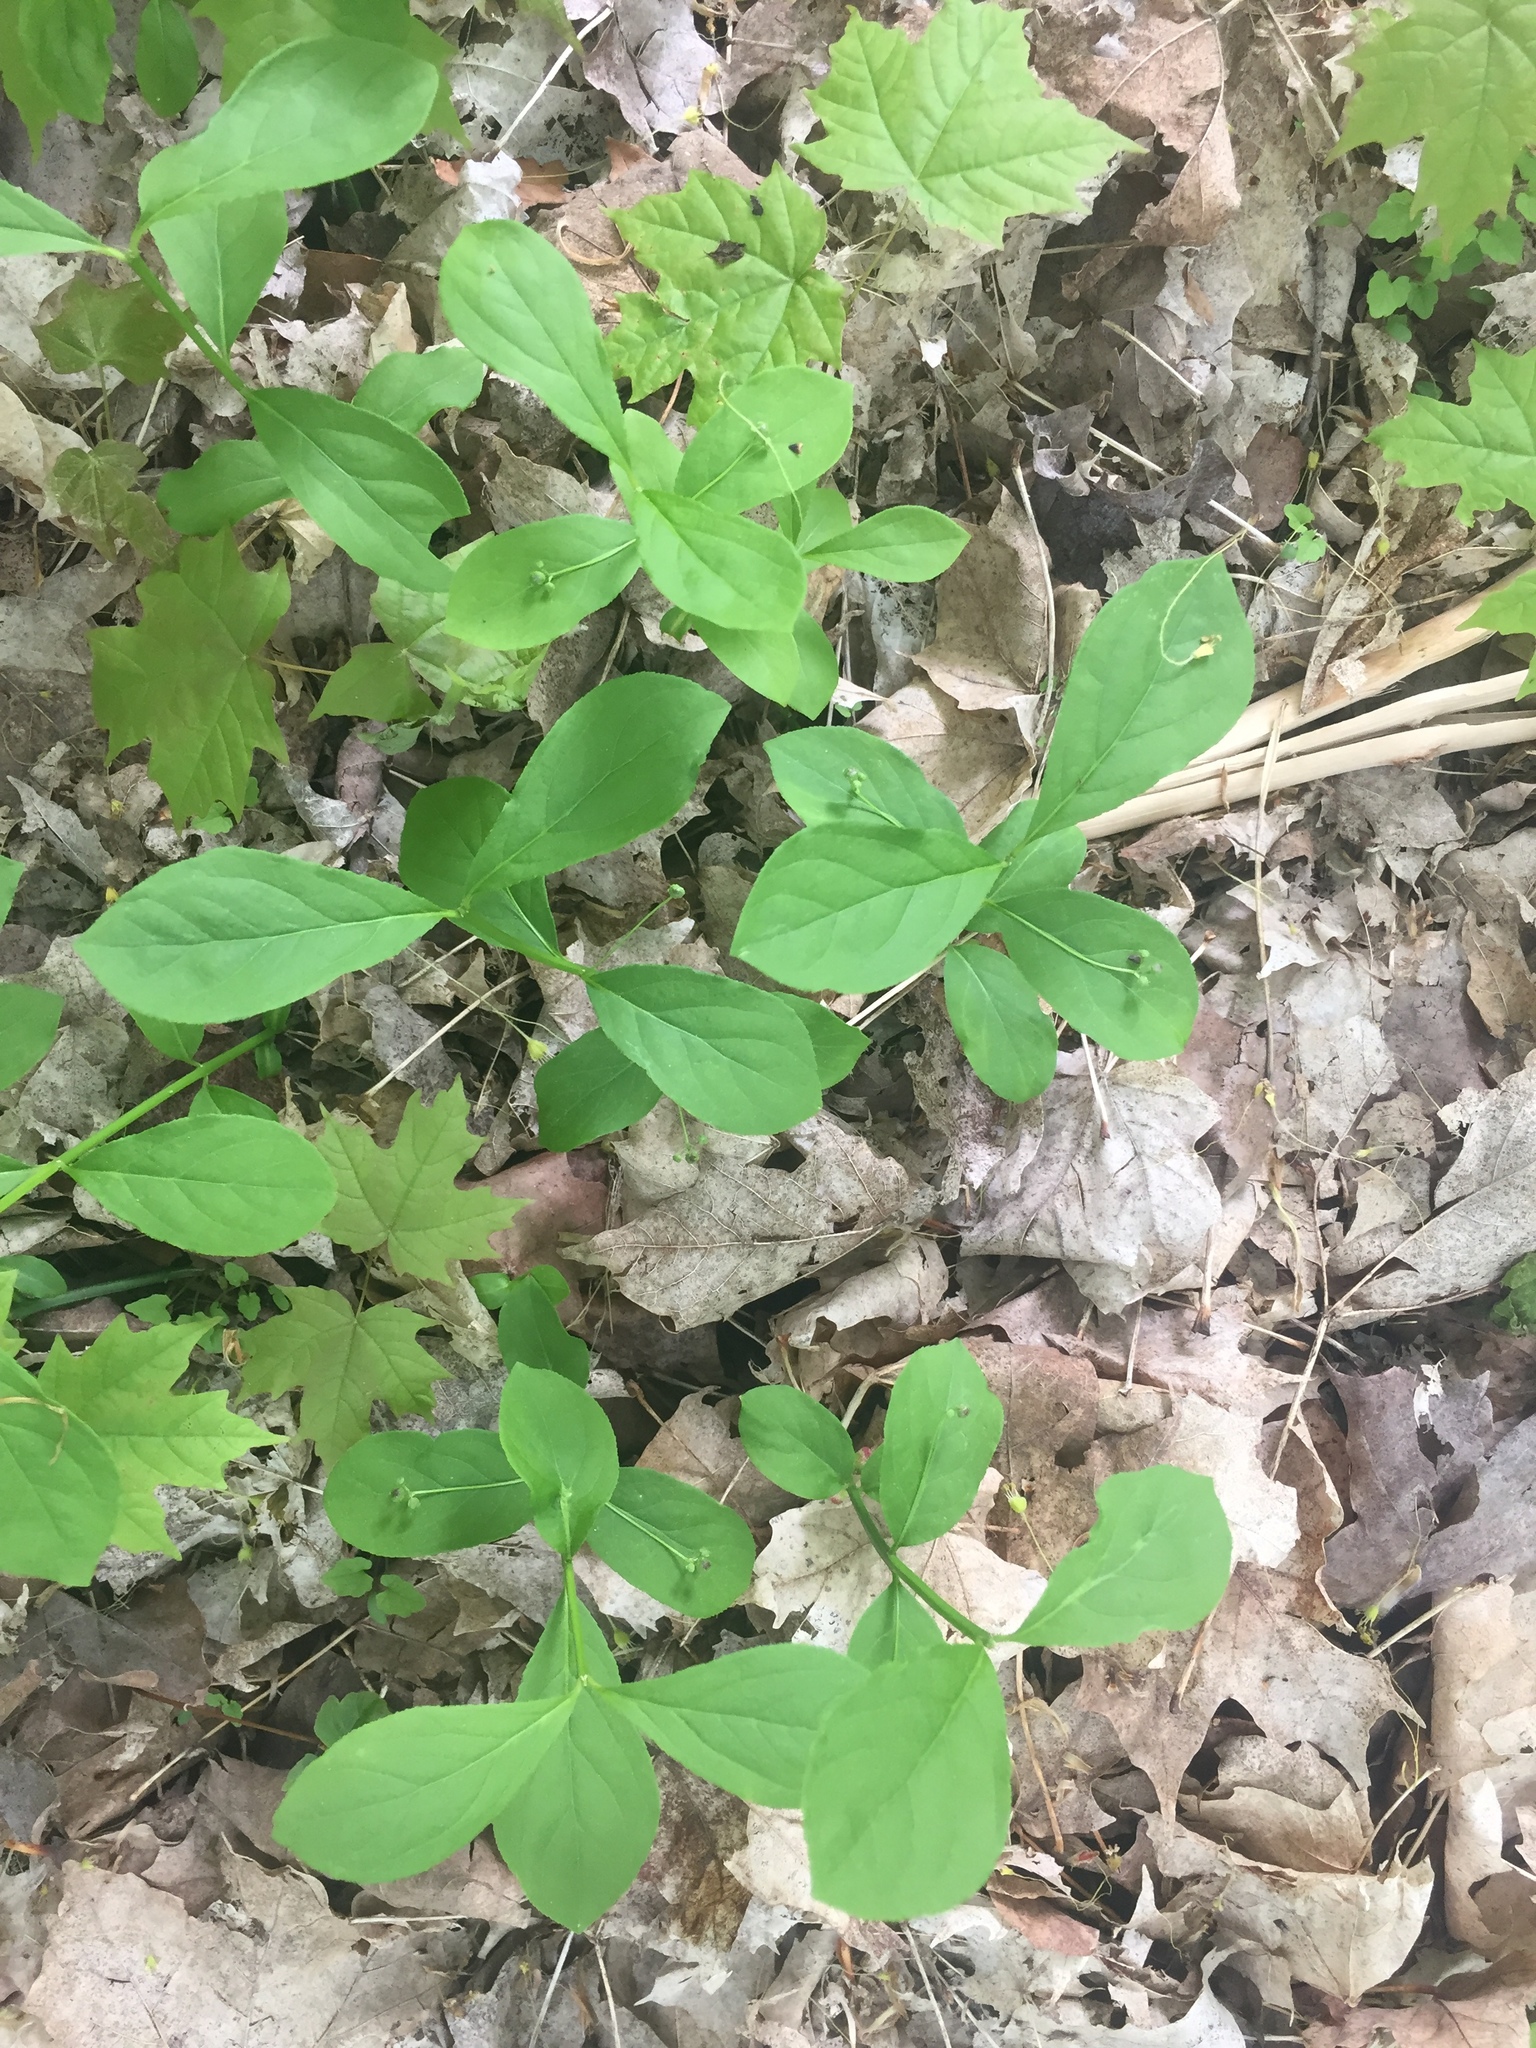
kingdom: Plantae
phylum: Tracheophyta
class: Magnoliopsida
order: Celastrales
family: Celastraceae
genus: Euonymus
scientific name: Euonymus obovatus
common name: Running strawberry-bush
